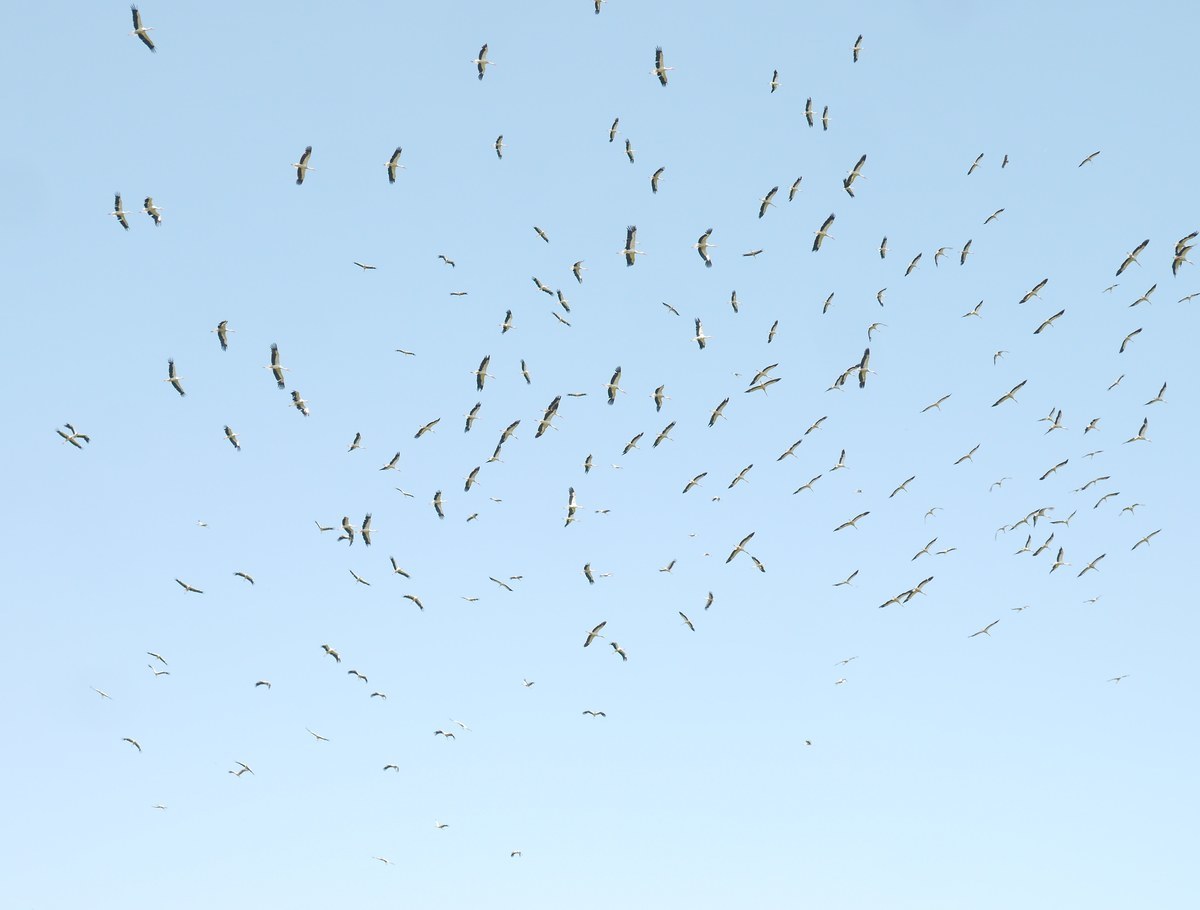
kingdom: Animalia
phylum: Chordata
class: Aves
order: Ciconiiformes
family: Ciconiidae
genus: Ciconia
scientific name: Ciconia ciconia
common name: White stork
